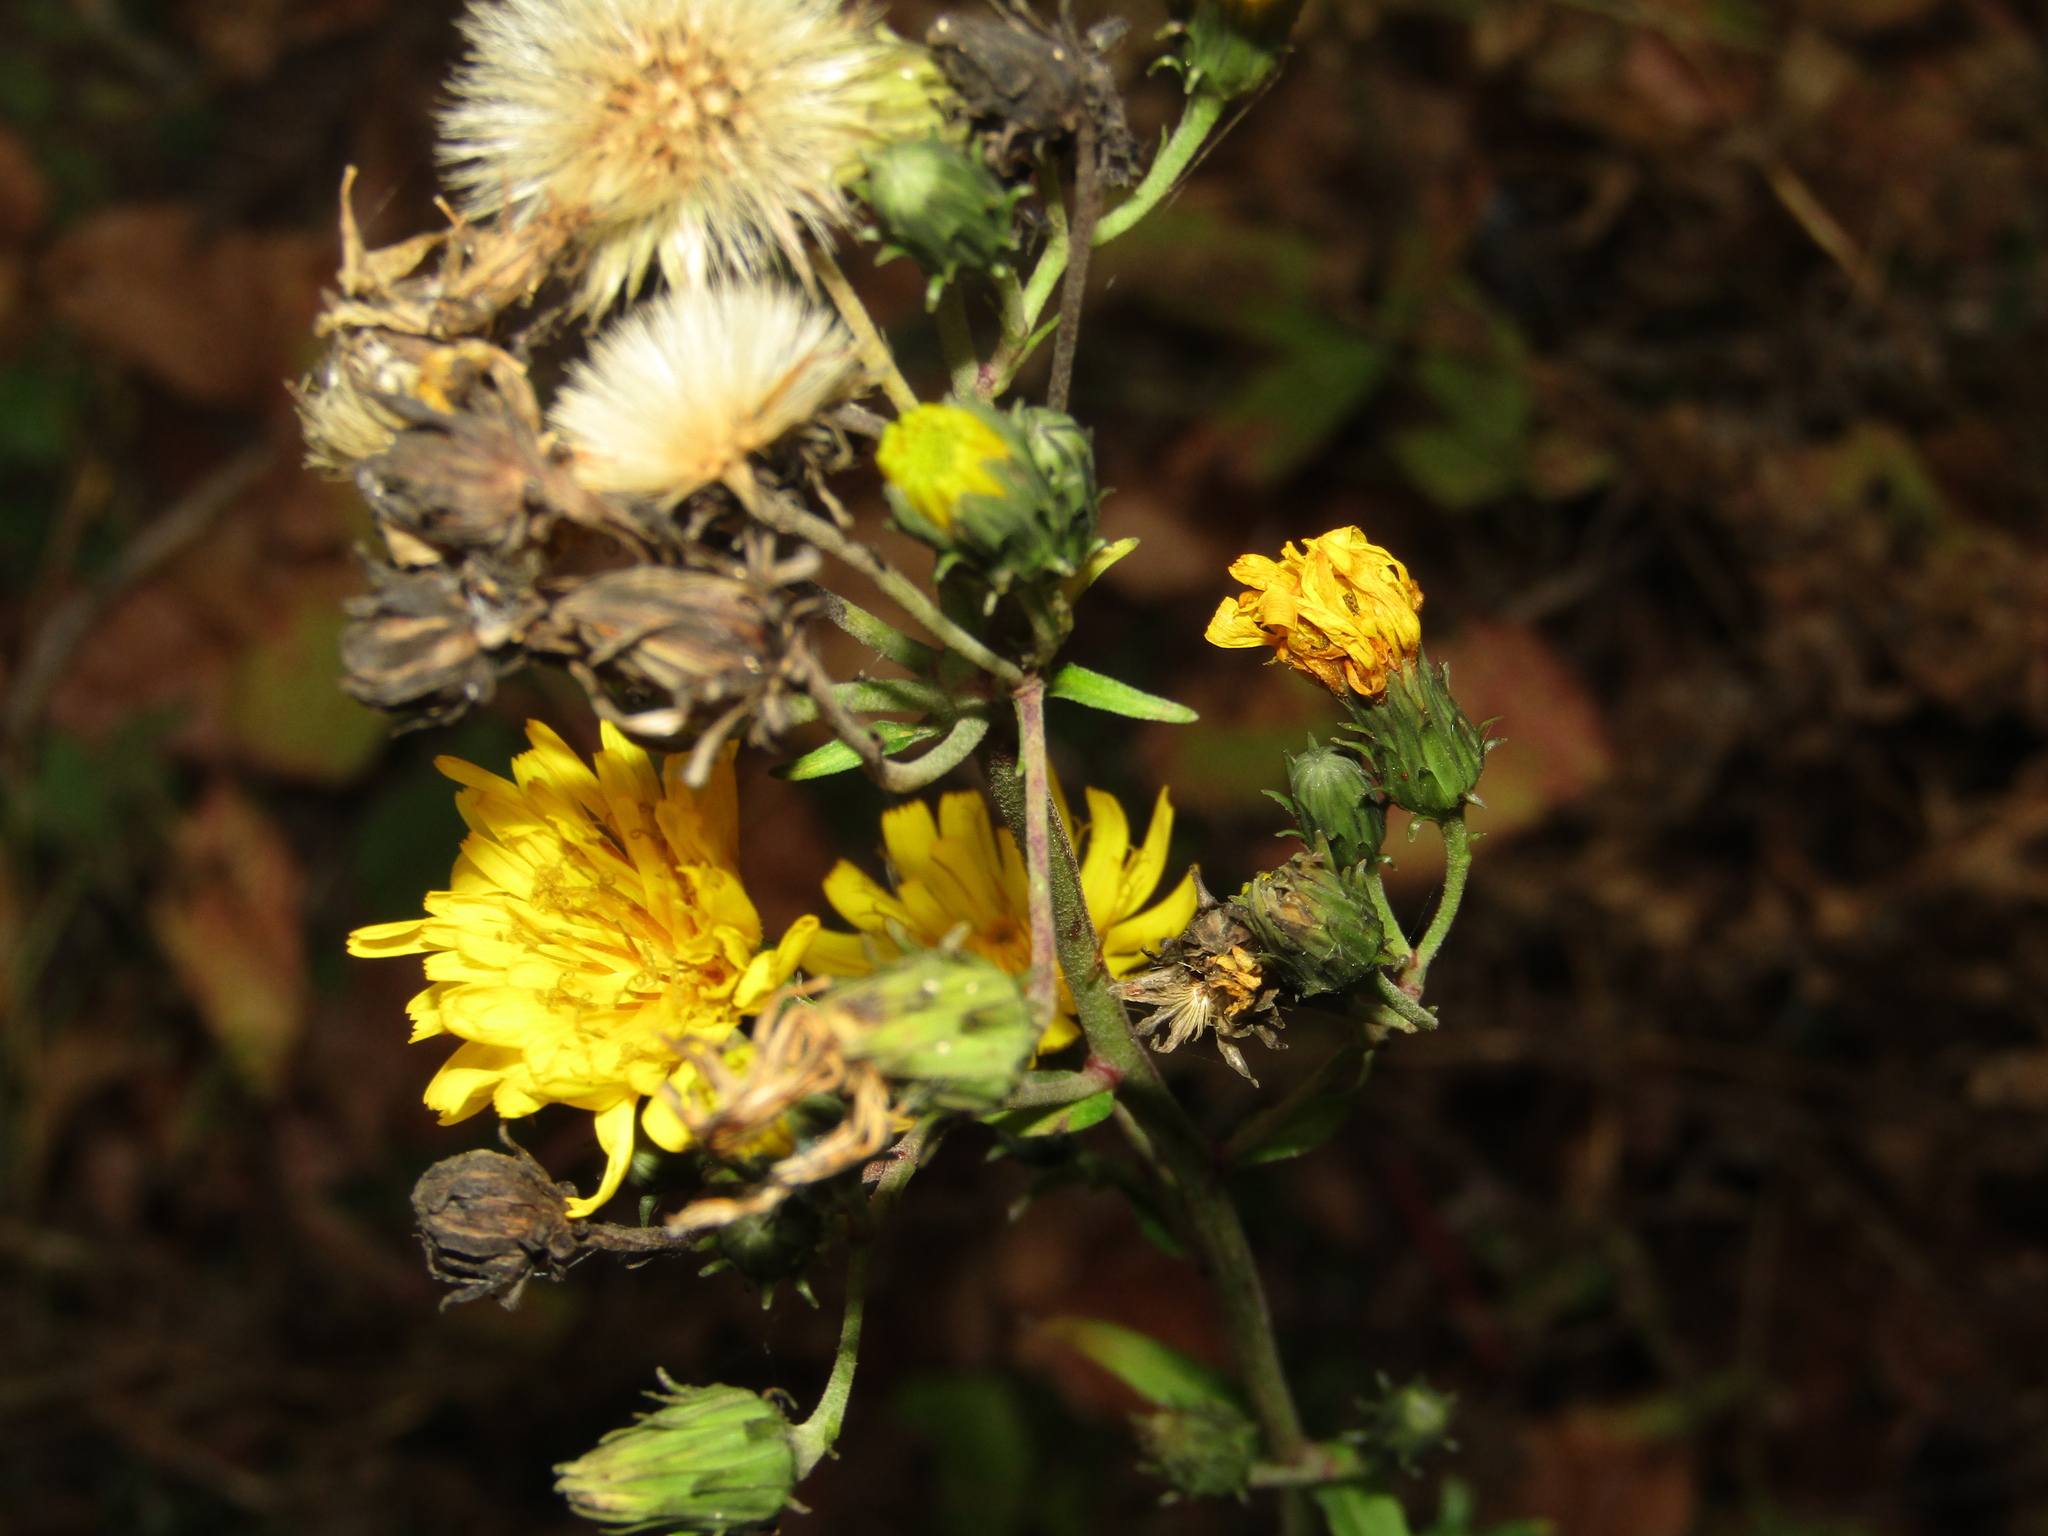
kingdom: Plantae
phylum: Tracheophyta
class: Magnoliopsida
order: Asterales
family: Asteraceae
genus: Hieracium
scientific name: Hieracium umbellatum
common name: Northern hawkweed
